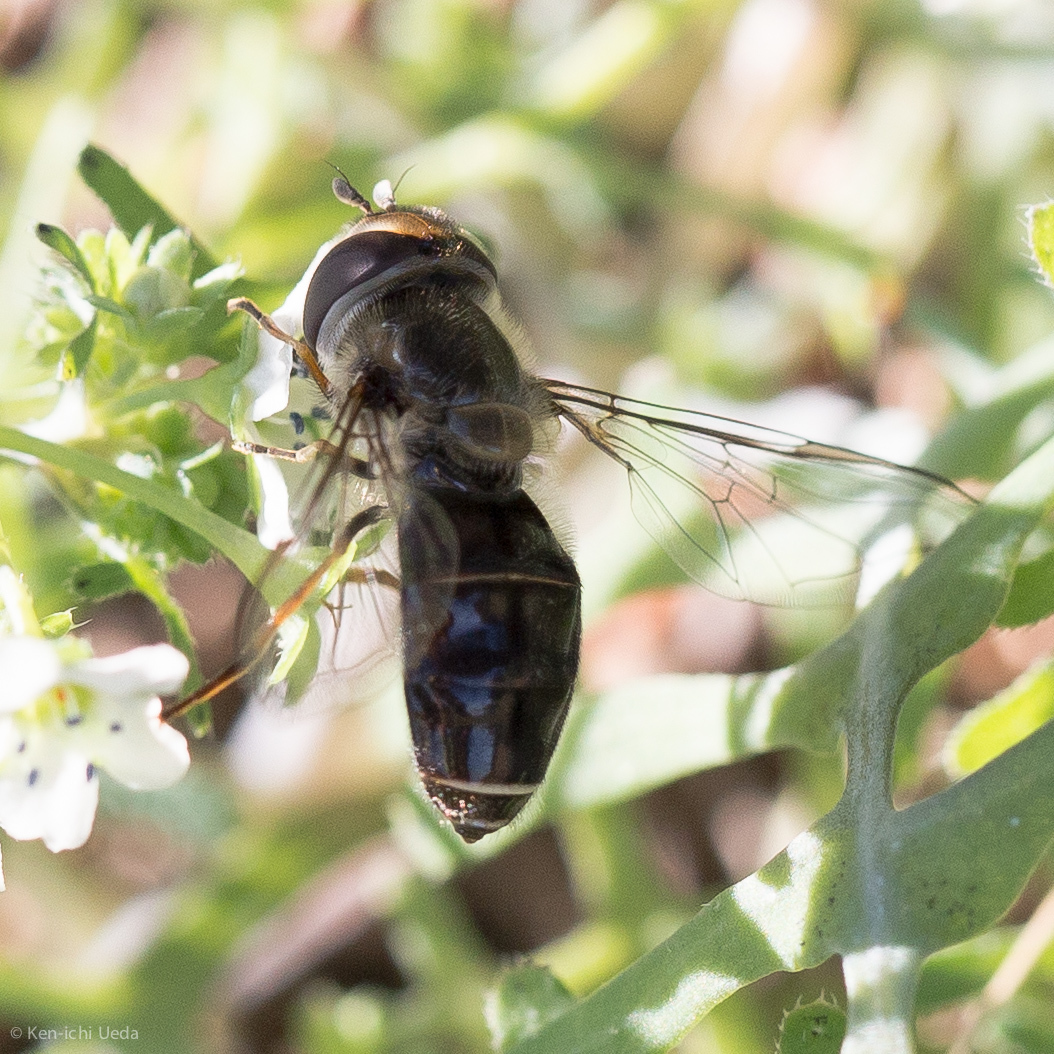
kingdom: Animalia
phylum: Arthropoda
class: Insecta
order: Diptera
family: Syrphidae
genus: Scaeva
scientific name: Scaeva affinis
